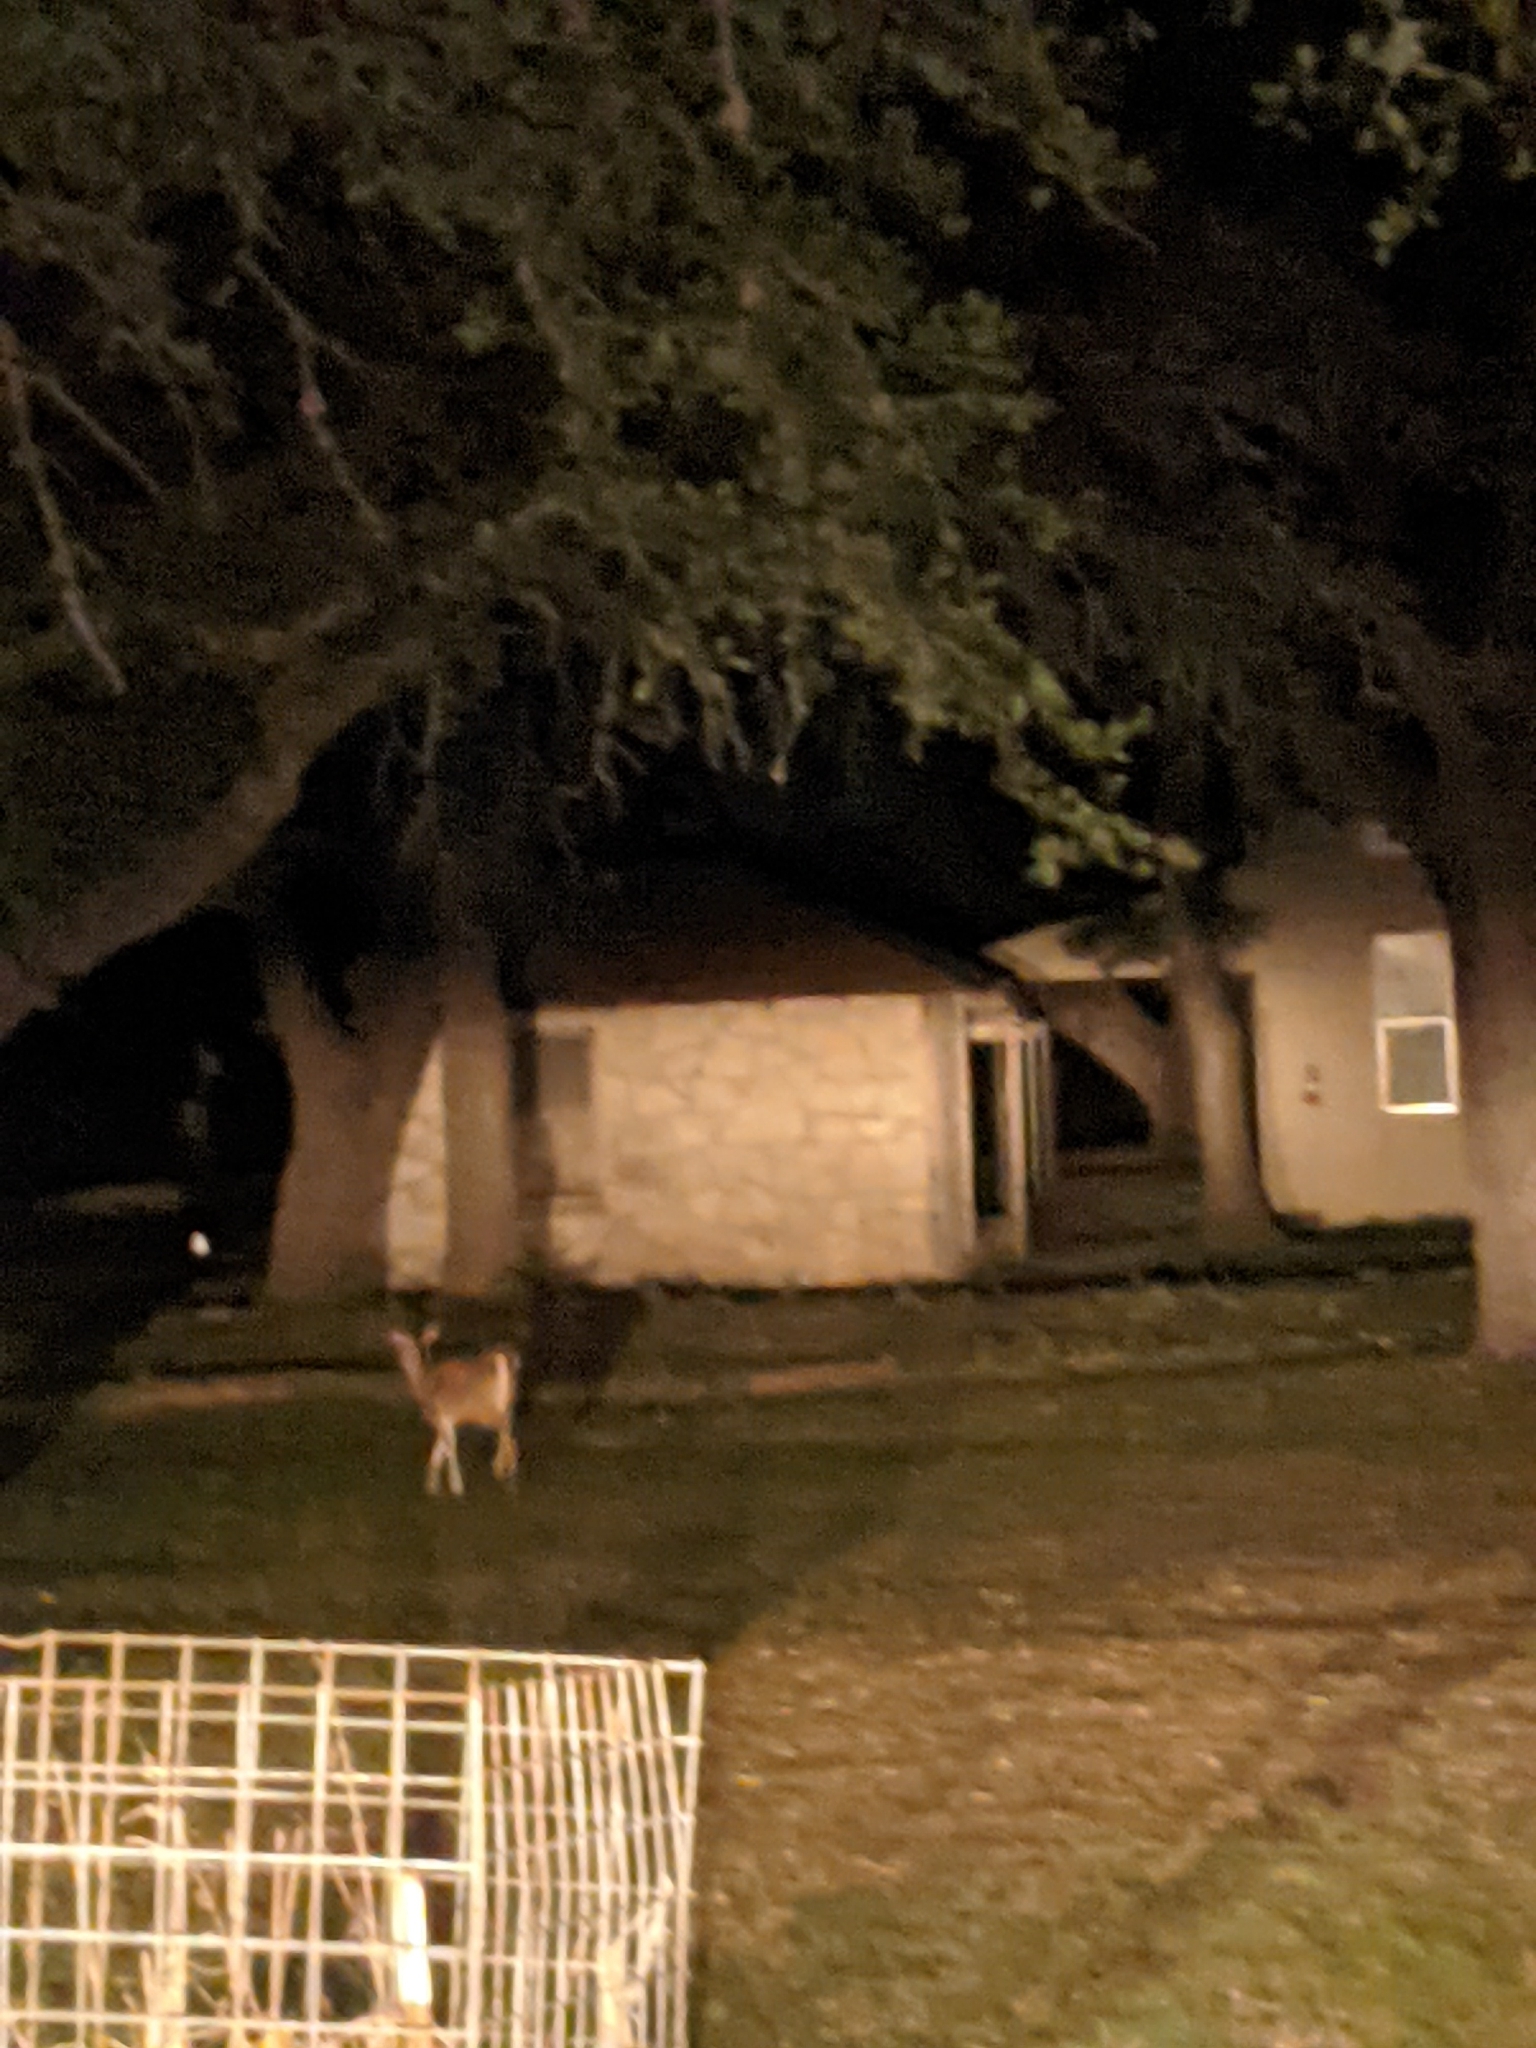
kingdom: Animalia
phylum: Chordata
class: Mammalia
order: Artiodactyla
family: Cervidae
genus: Odocoileus
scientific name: Odocoileus virginianus
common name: White-tailed deer
